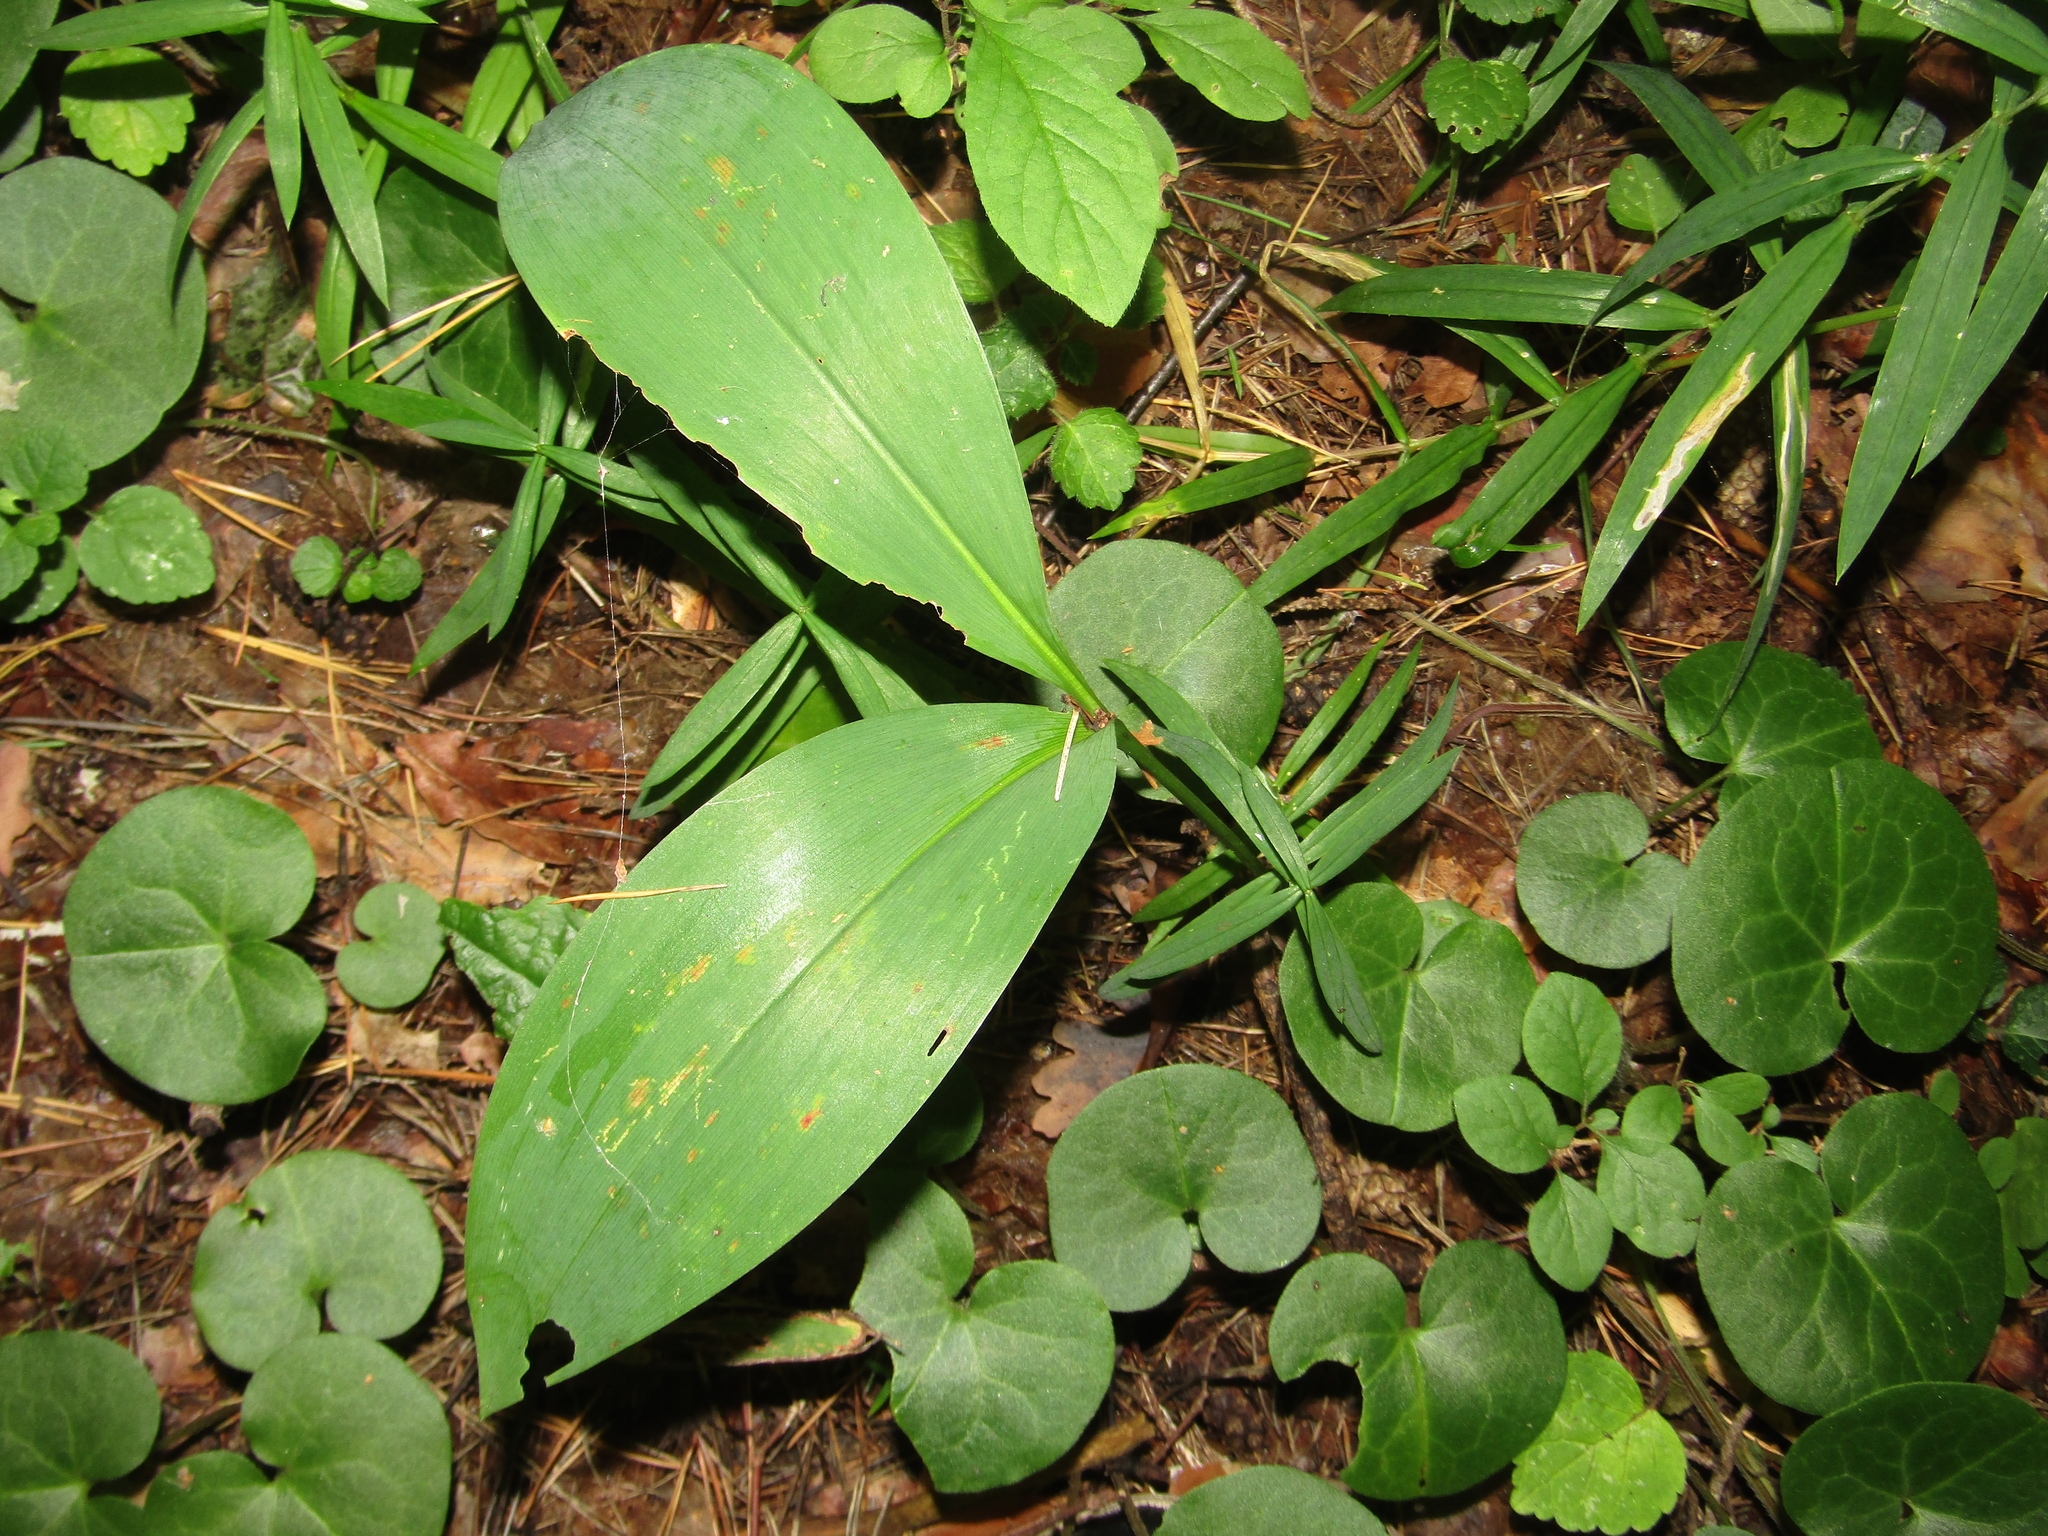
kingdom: Plantae
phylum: Tracheophyta
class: Liliopsida
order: Asparagales
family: Asparagaceae
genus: Convallaria
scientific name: Convallaria majalis
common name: Lily-of-the-valley
